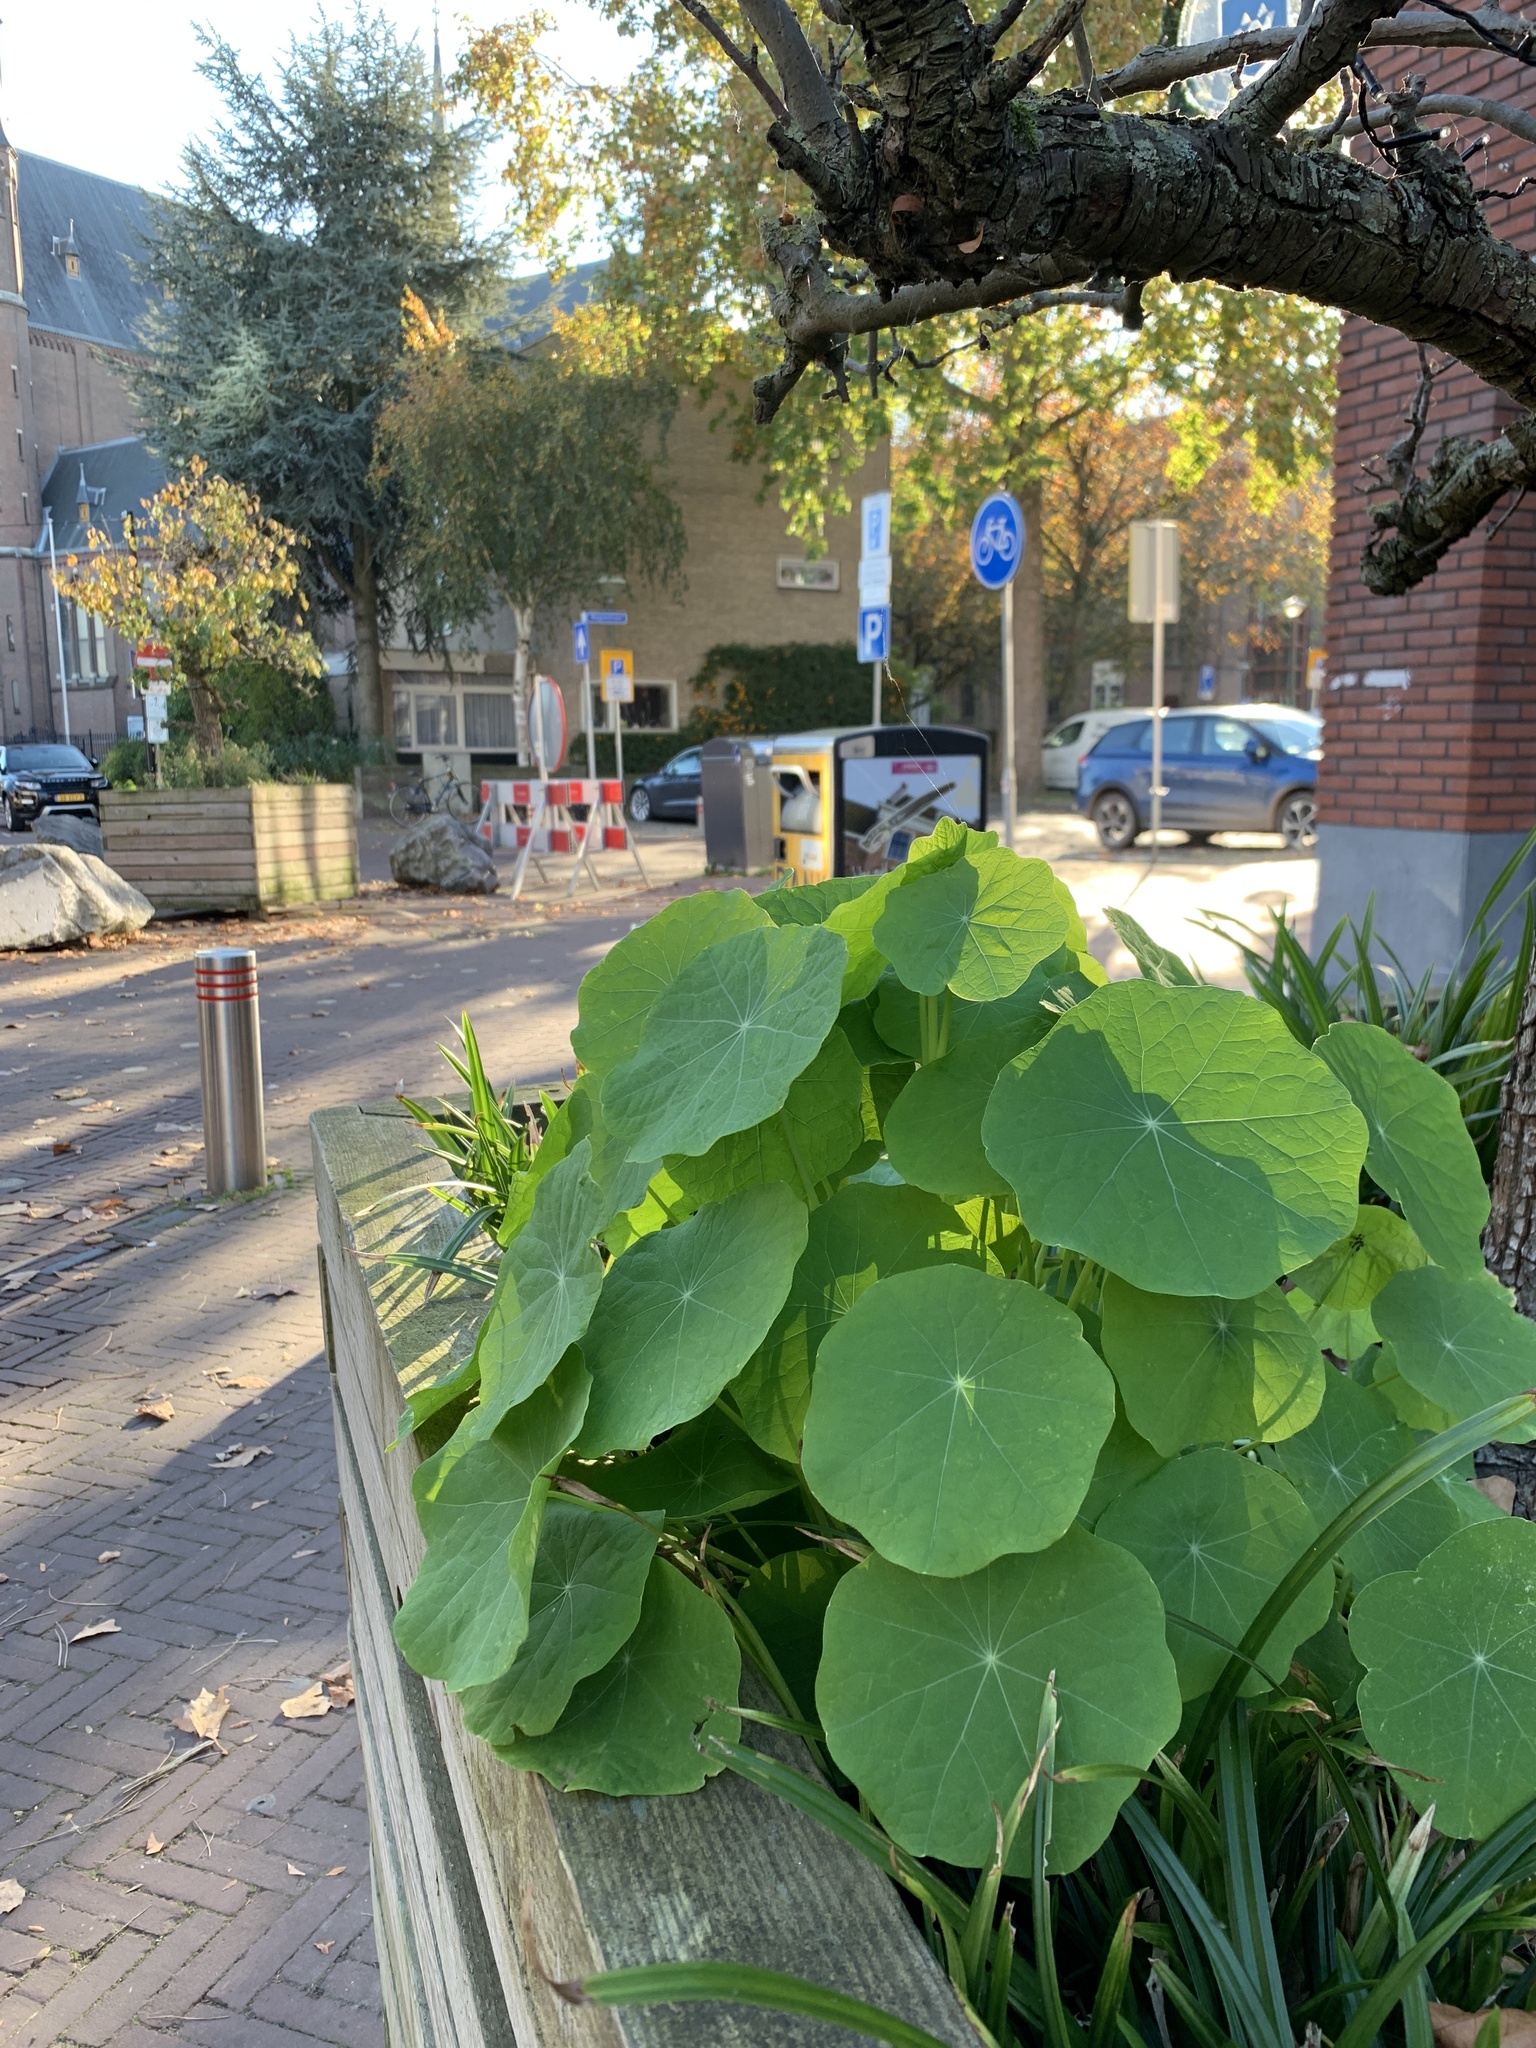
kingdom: Plantae
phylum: Tracheophyta
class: Magnoliopsida
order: Brassicales
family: Tropaeolaceae
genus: Tropaeolum
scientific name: Tropaeolum majus
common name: Nasturtium
